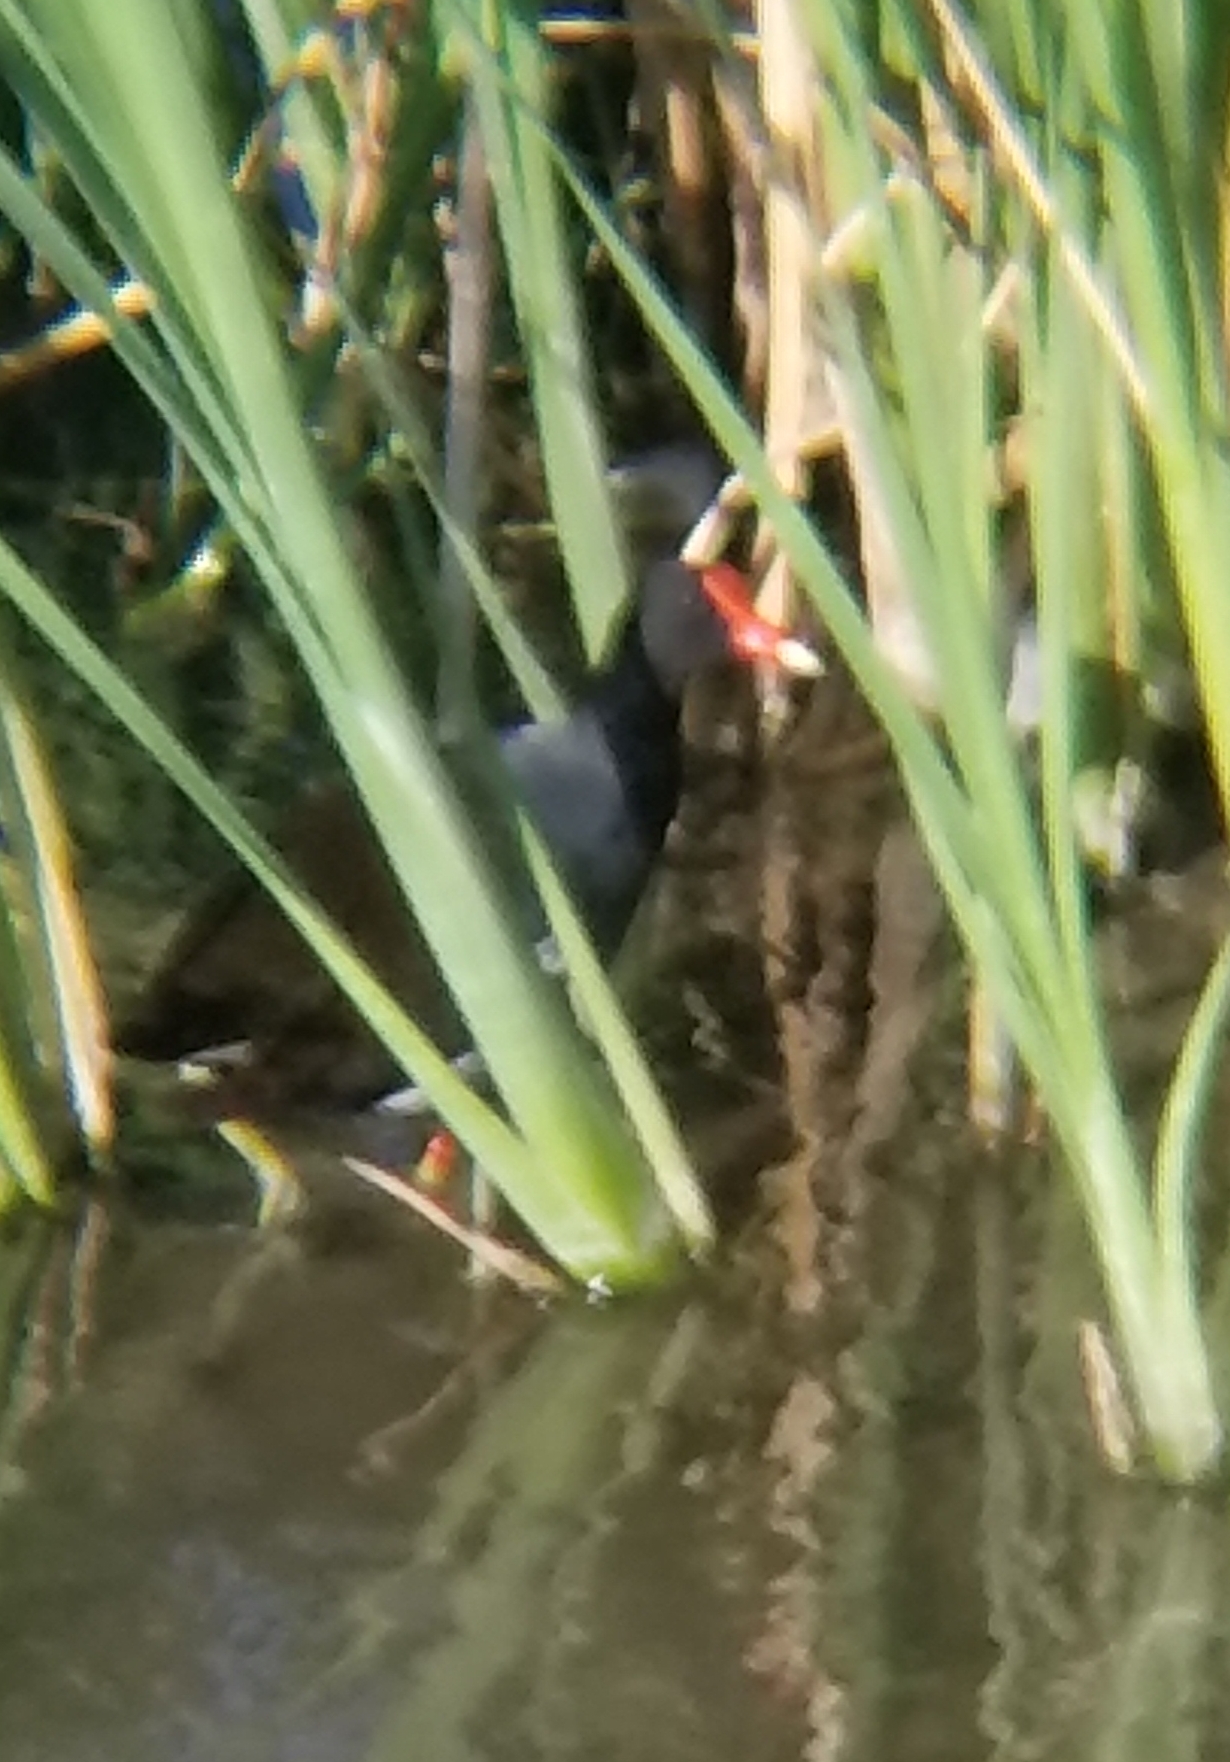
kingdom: Animalia
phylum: Chordata
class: Aves
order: Gruiformes
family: Rallidae
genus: Gallinula
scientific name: Gallinula chloropus
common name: Common moorhen
